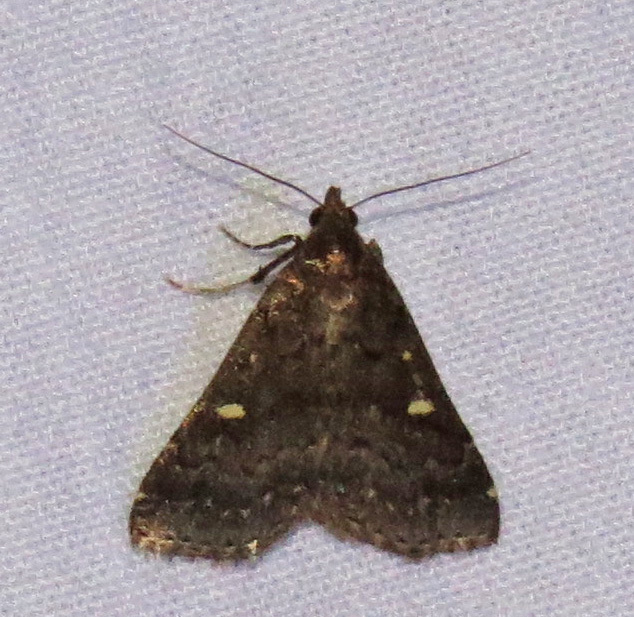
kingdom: Animalia
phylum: Arthropoda
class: Insecta
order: Lepidoptera
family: Erebidae
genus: Tetanolita
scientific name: Tetanolita mynesalis
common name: Smoky tetanolita moth
